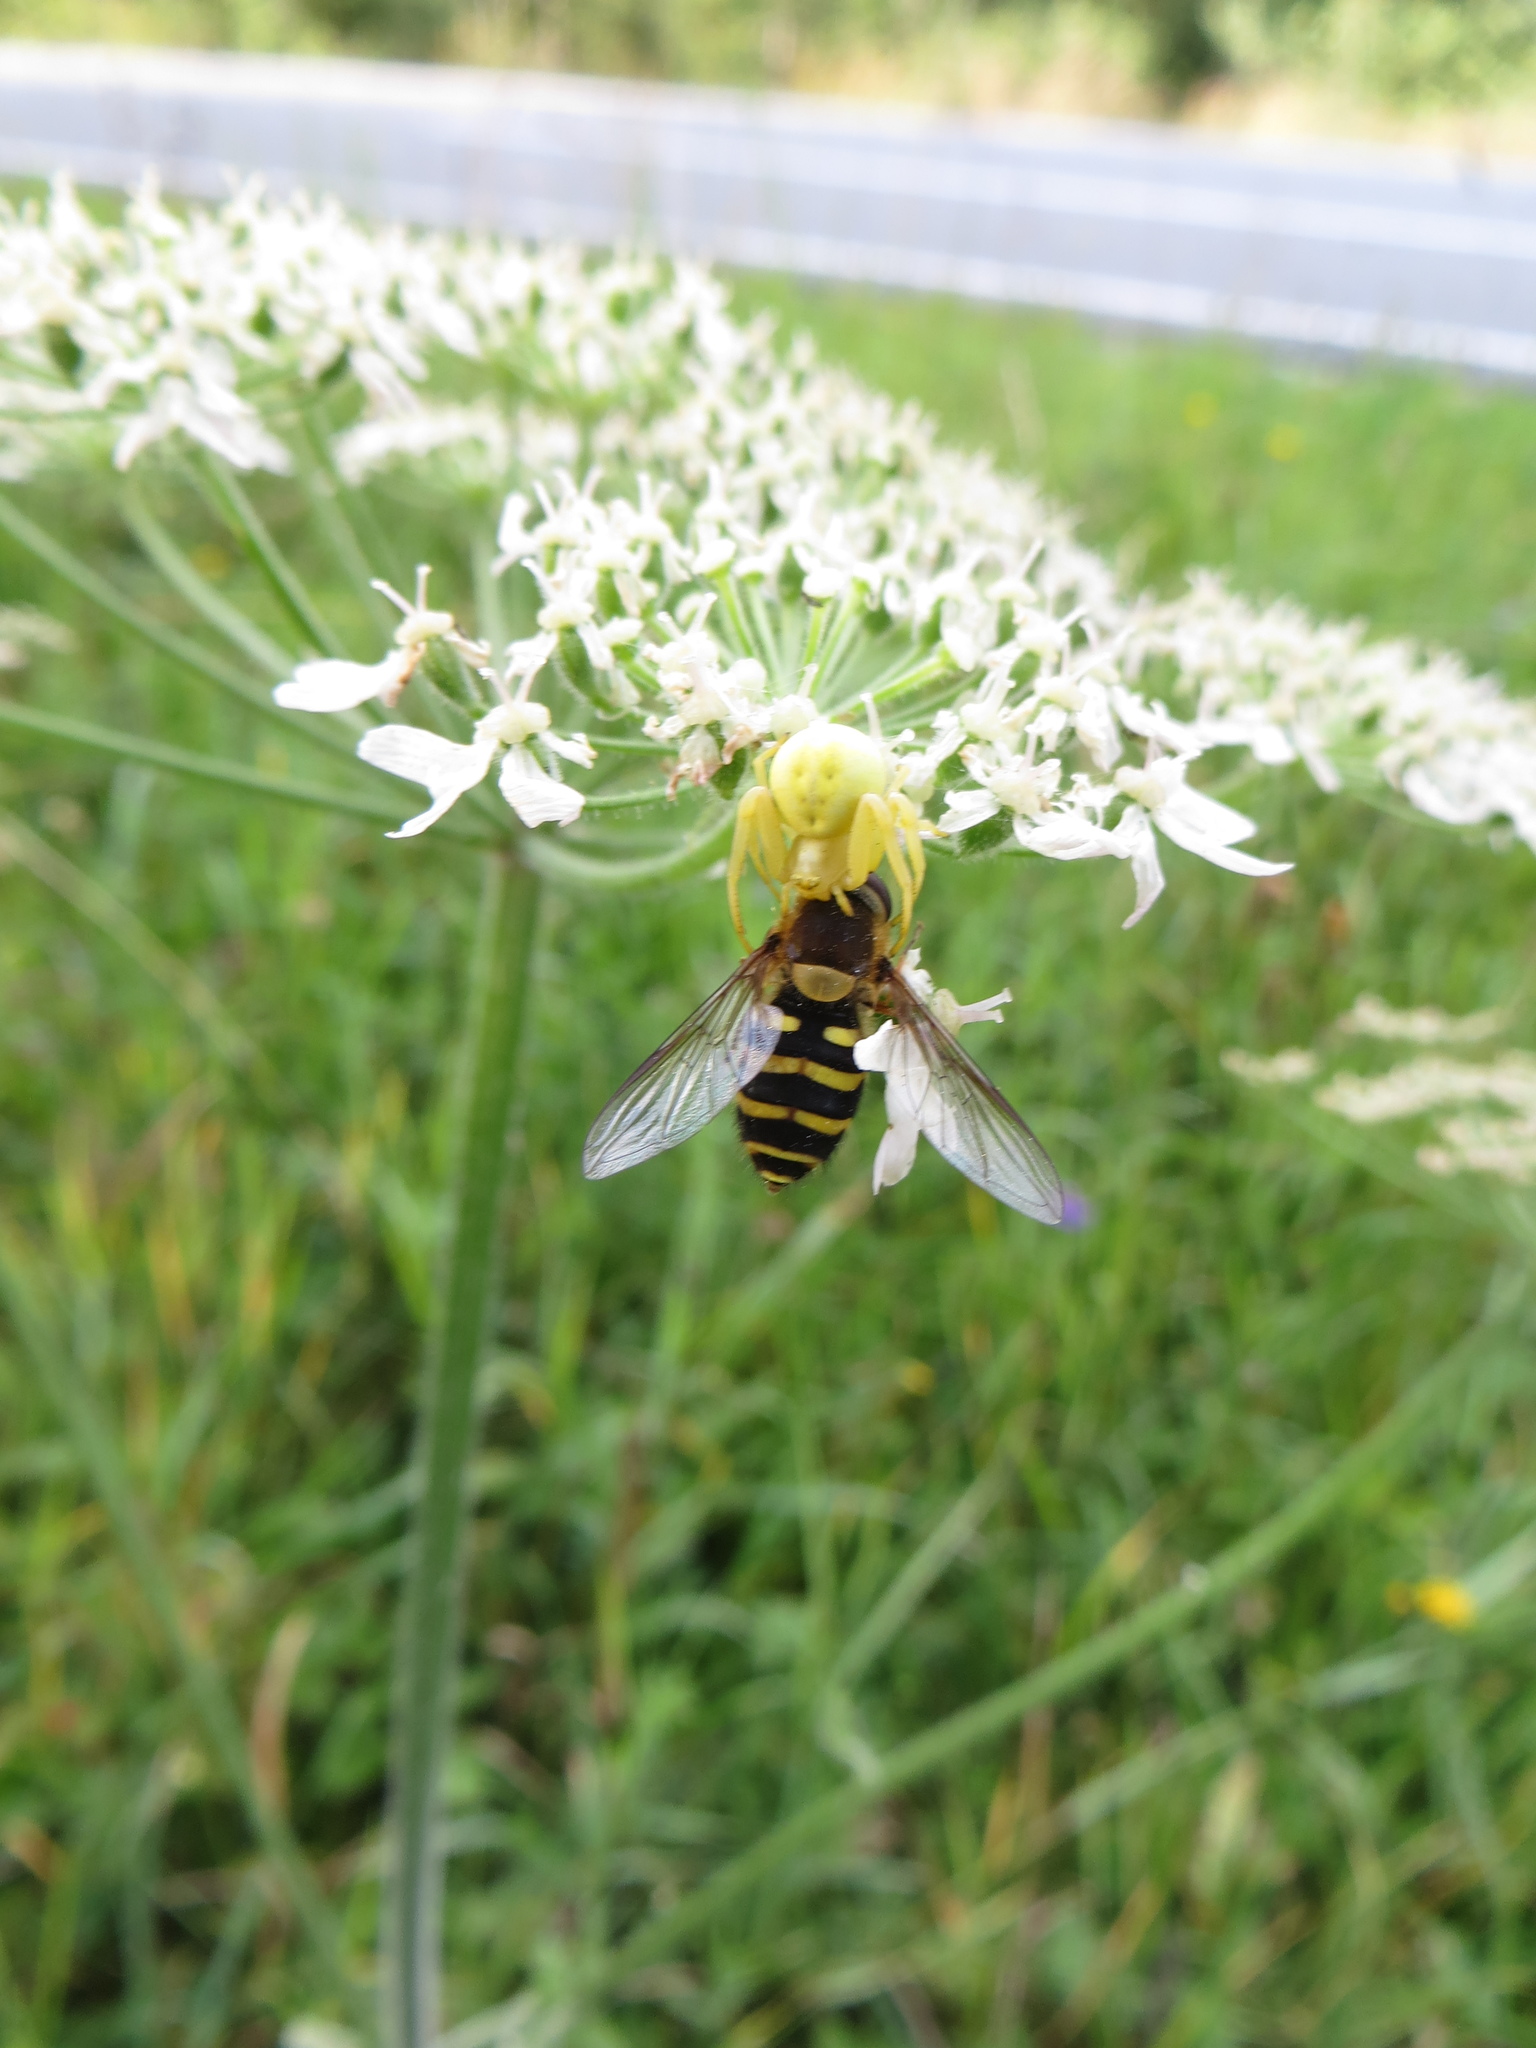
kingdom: Animalia
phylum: Arthropoda
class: Insecta
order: Diptera
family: Syrphidae
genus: Syrphus
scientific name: Syrphus
